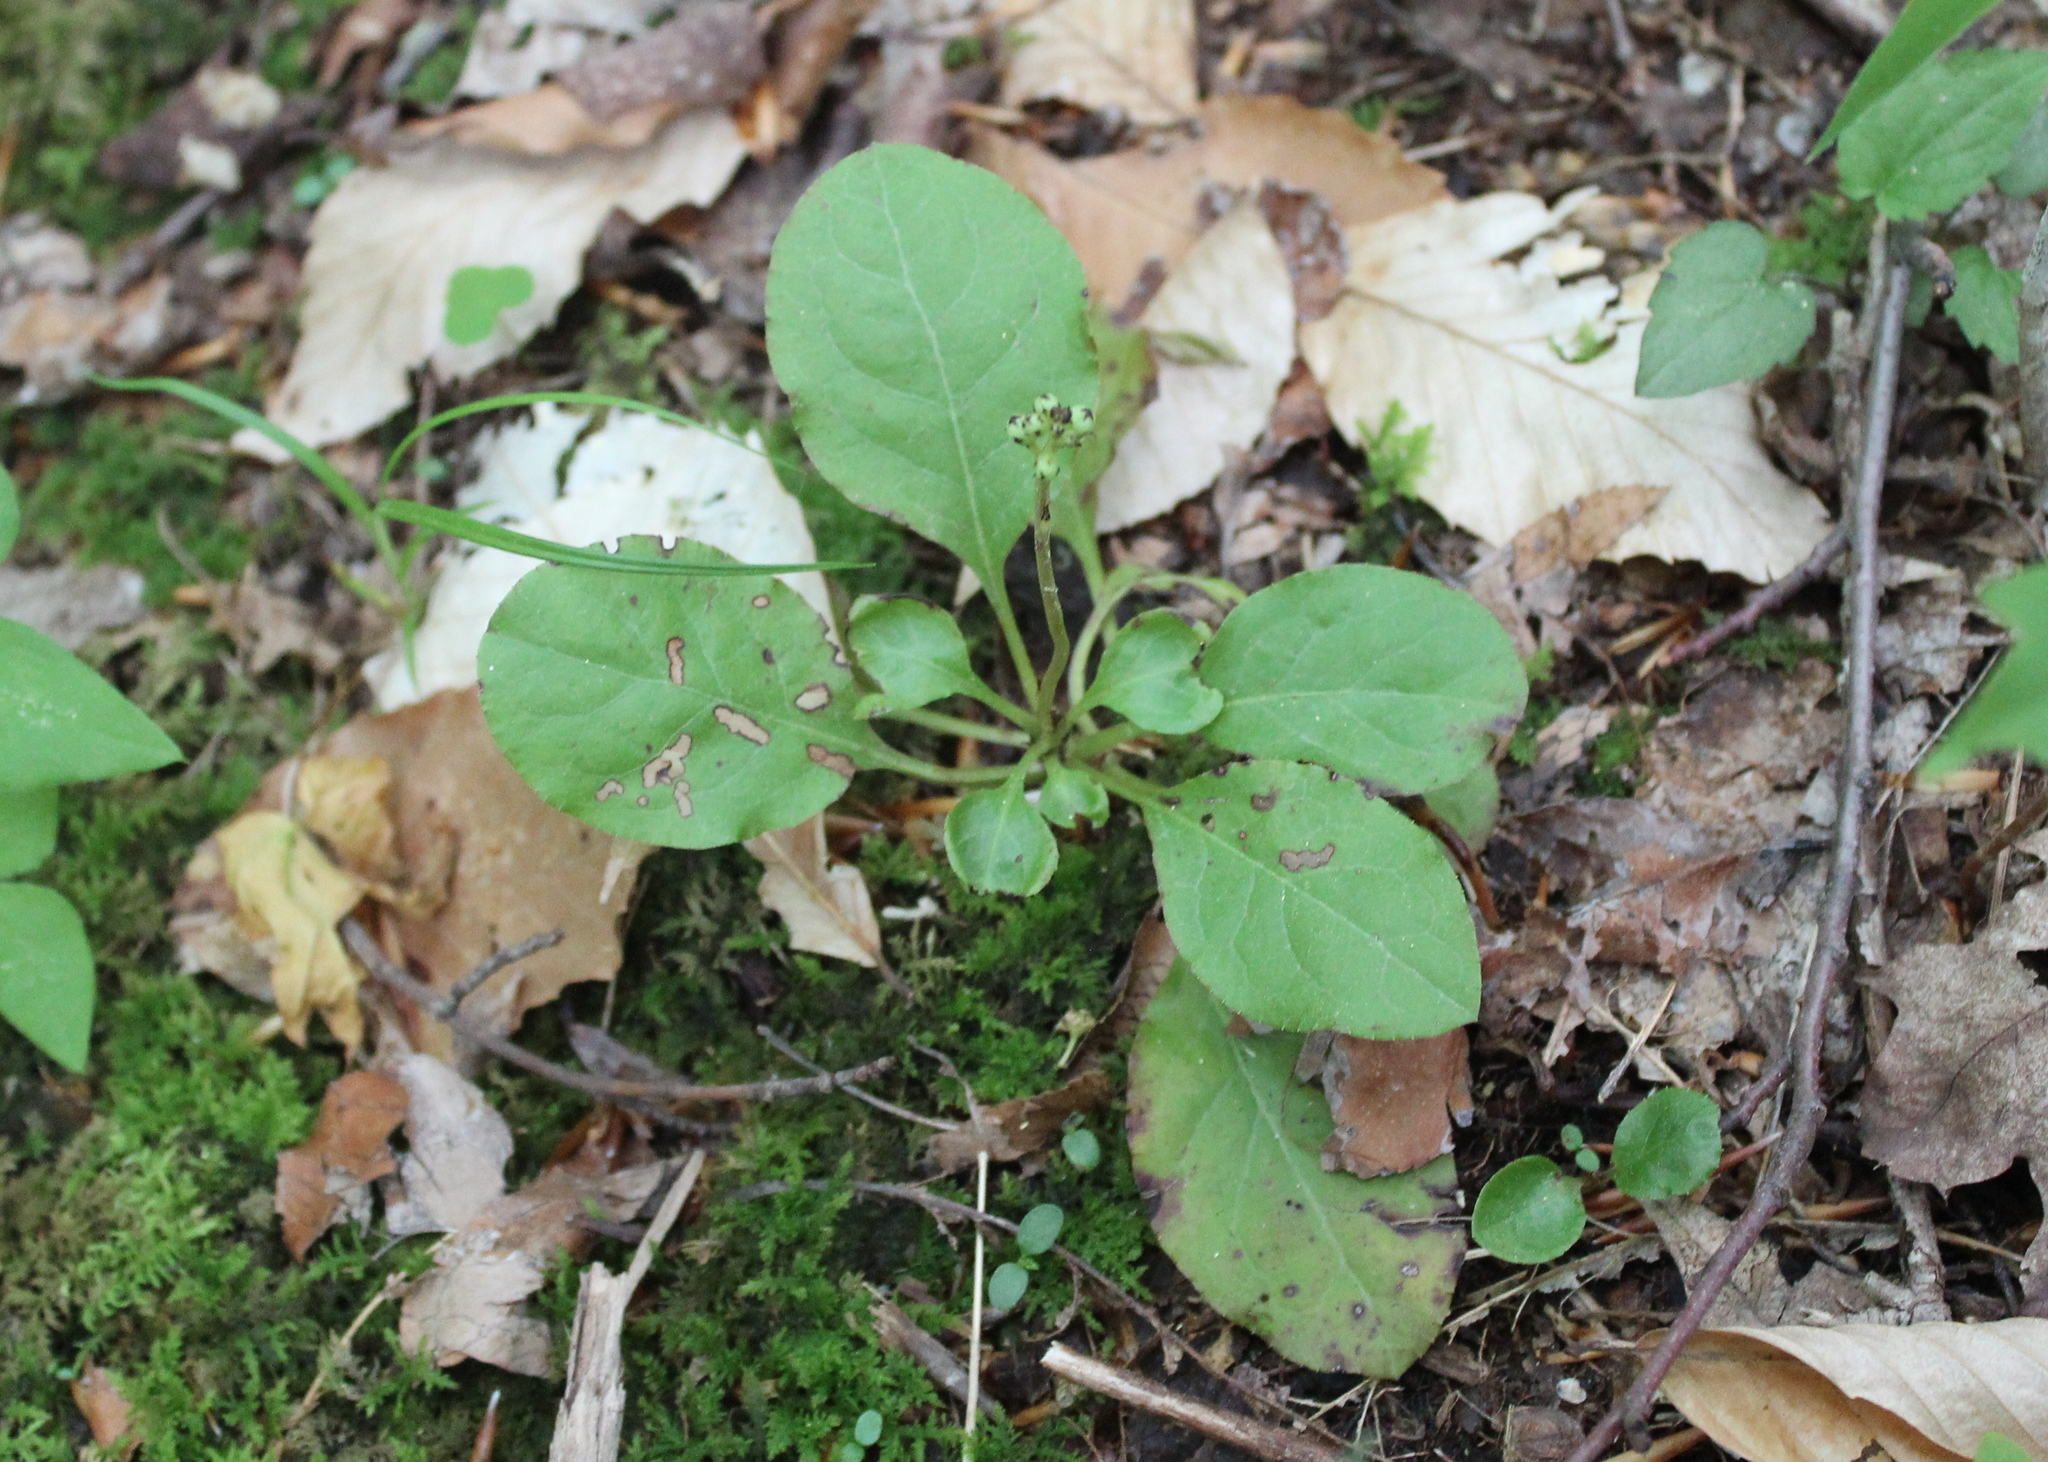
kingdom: Plantae
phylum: Tracheophyta
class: Magnoliopsida
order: Ericales
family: Ericaceae
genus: Pyrola
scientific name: Pyrola elliptica
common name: Shinleaf
